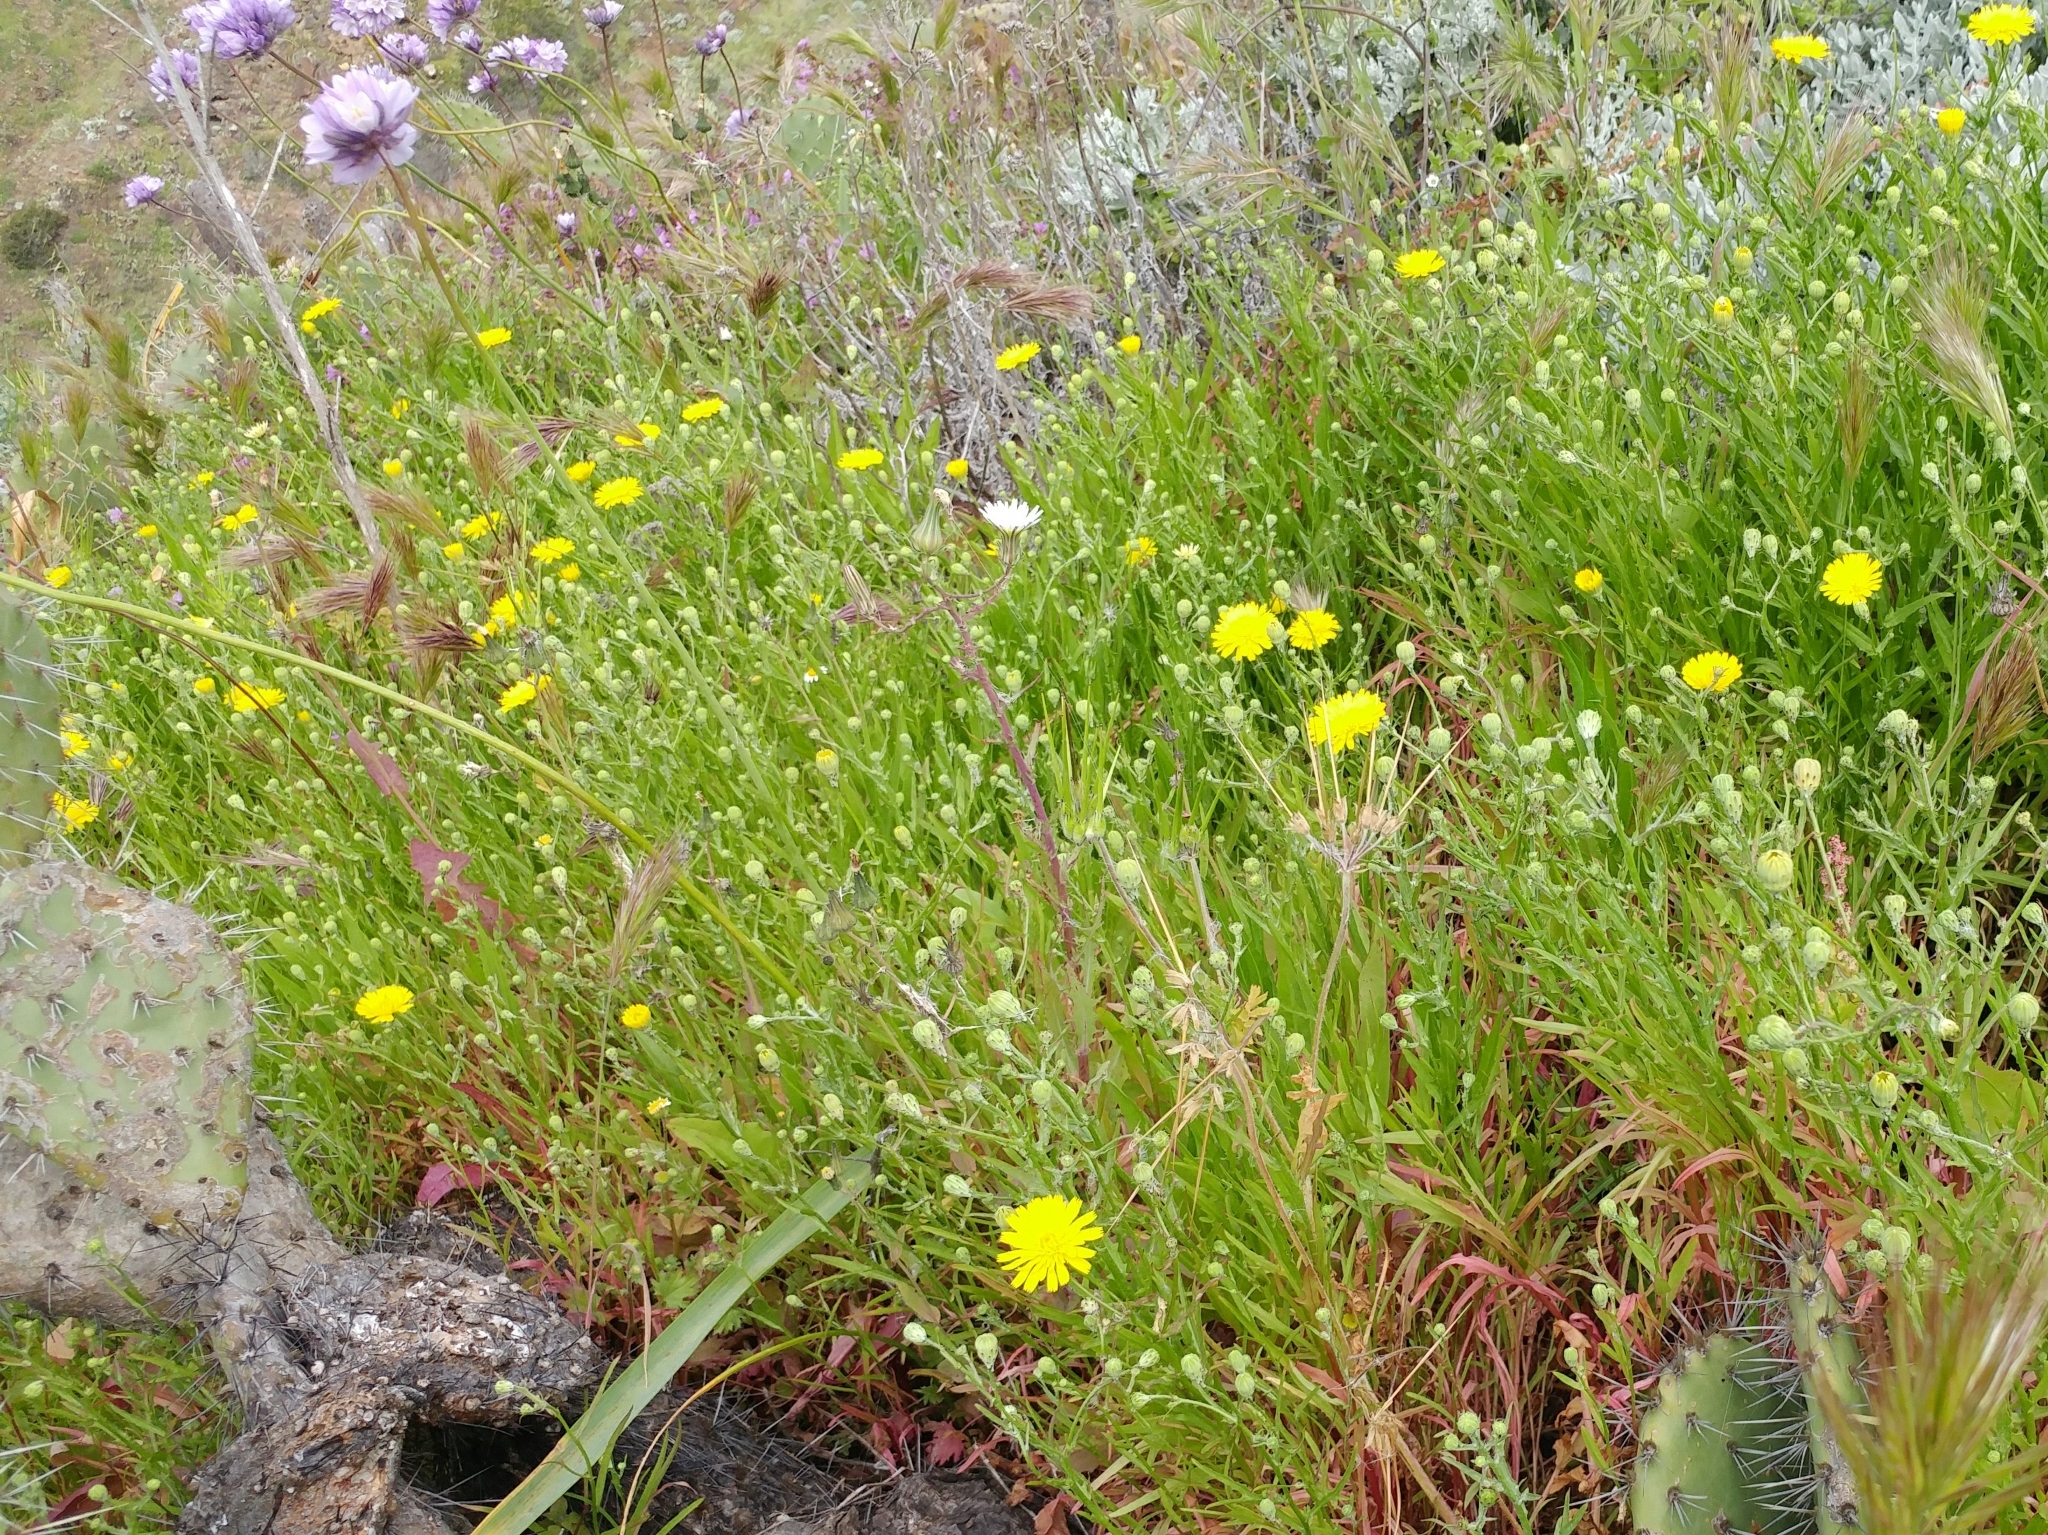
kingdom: Plantae
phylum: Tracheophyta
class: Magnoliopsida
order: Asterales
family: Asteraceae
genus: Malacothrix
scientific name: Malacothrix foliosa
